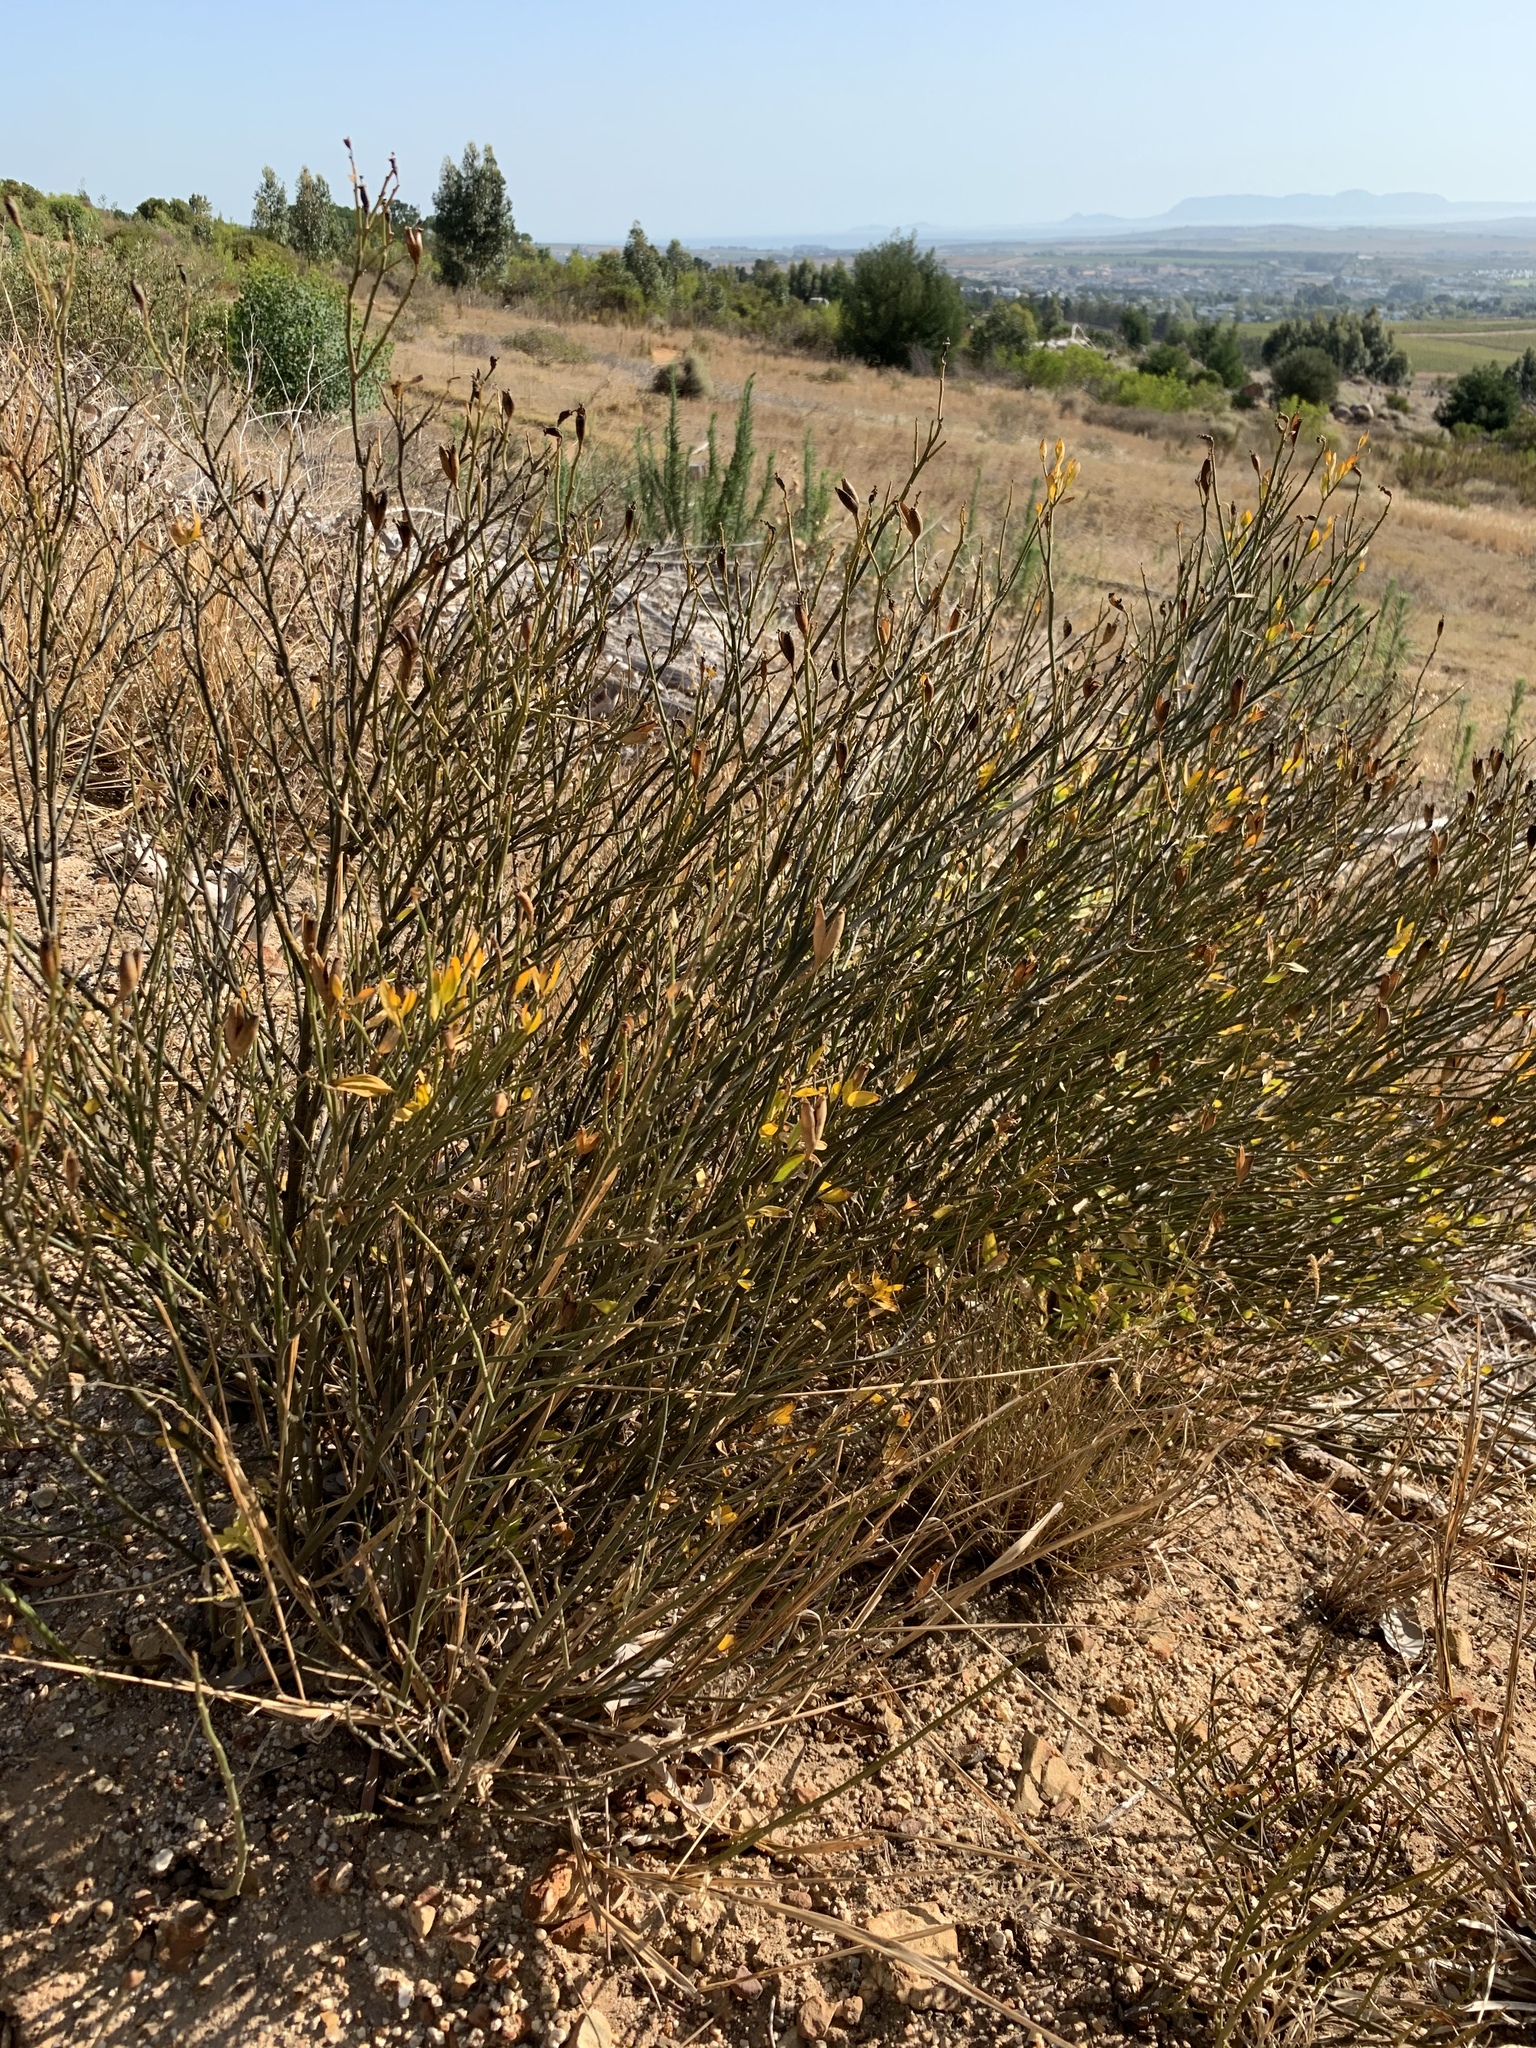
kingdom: Plantae
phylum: Tracheophyta
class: Magnoliopsida
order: Solanales
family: Montiniaceae
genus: Montinia
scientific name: Montinia caryophyllacea
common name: Wild clove-bush
